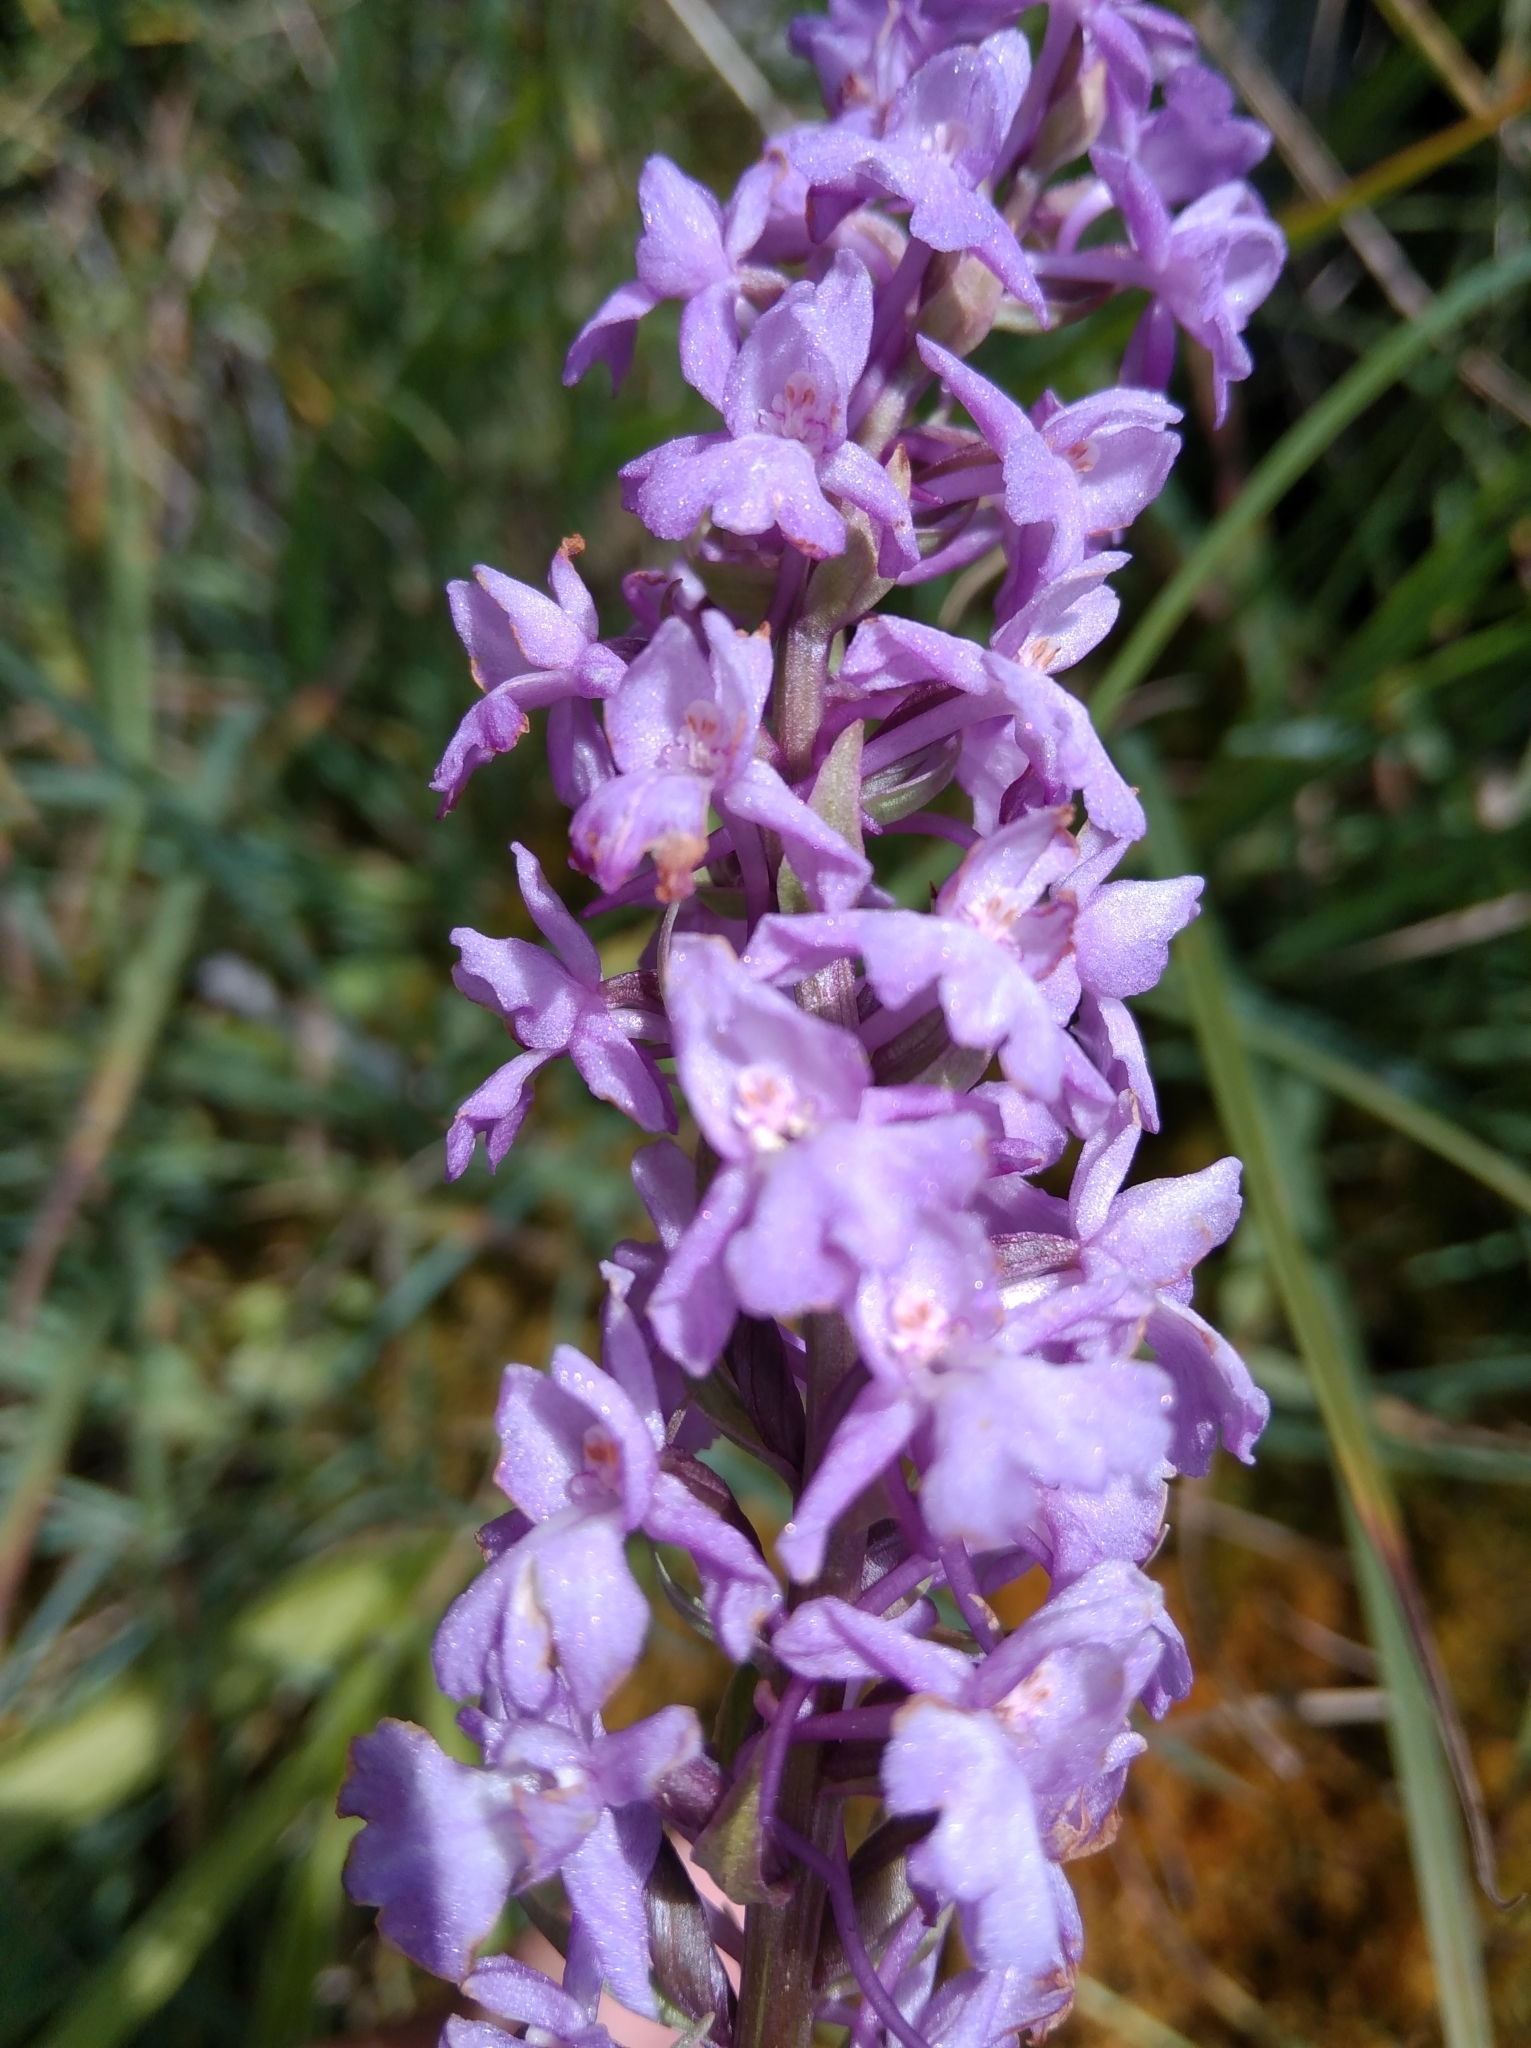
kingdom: Plantae
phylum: Tracheophyta
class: Liliopsida
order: Asparagales
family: Orchidaceae
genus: Gymnadenia
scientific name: Gymnadenia conopsea
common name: Fragrant orchid
